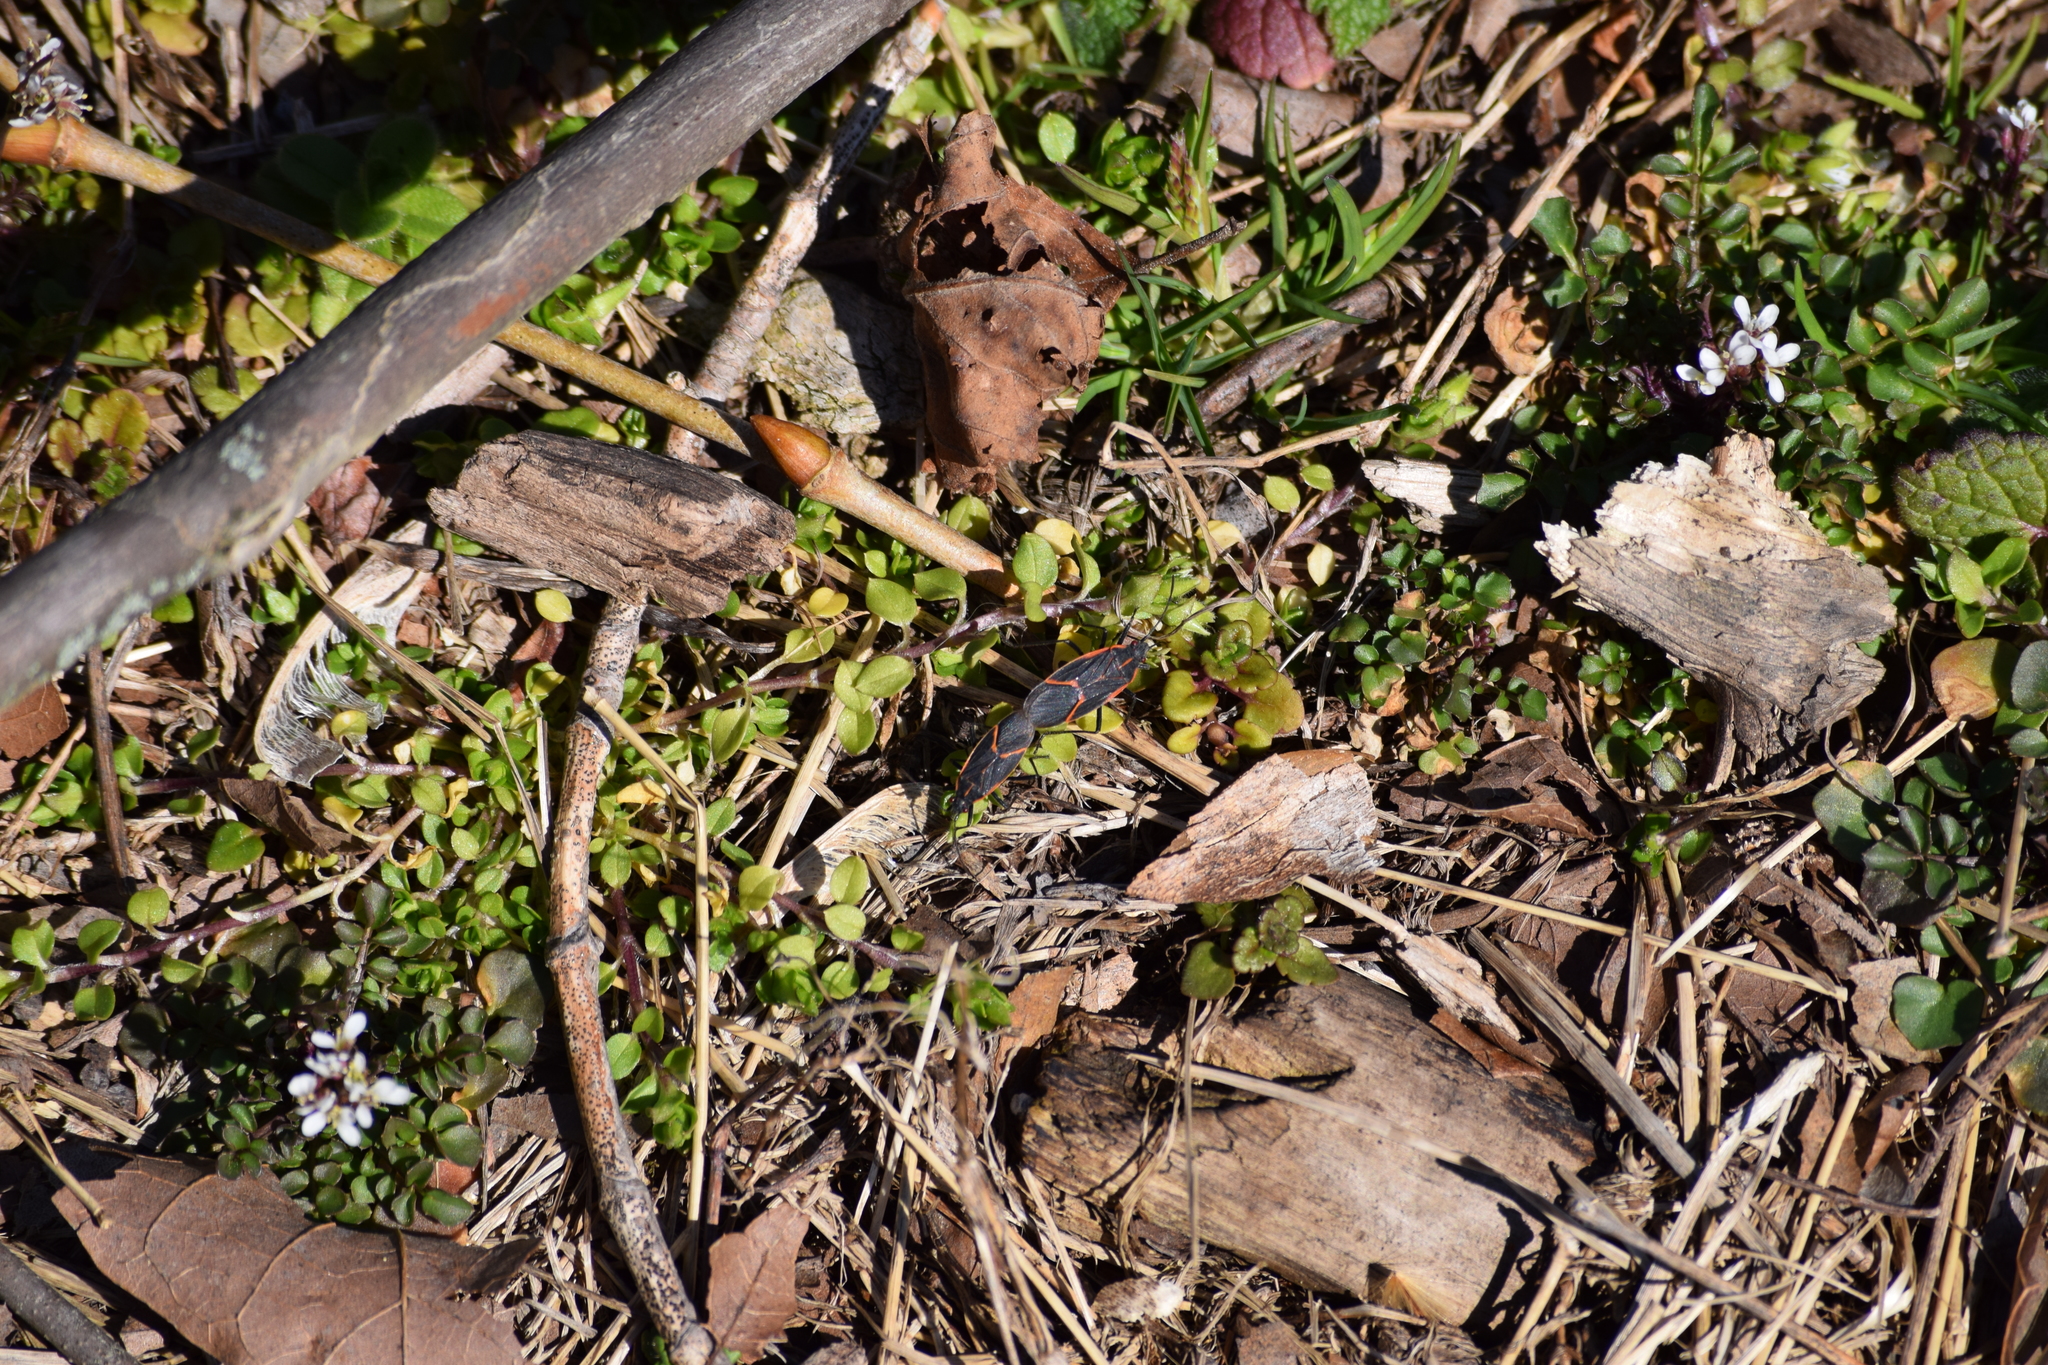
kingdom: Animalia
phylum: Arthropoda
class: Insecta
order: Hemiptera
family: Rhopalidae
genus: Boisea
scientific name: Boisea trivittata
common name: Boxelder bug
